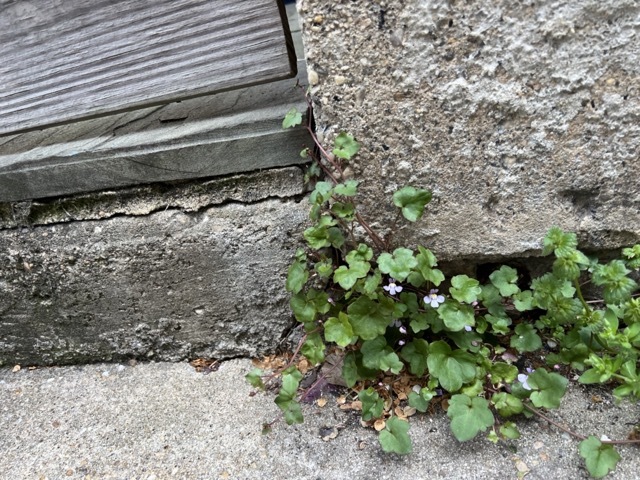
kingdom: Plantae
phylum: Tracheophyta
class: Magnoliopsida
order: Lamiales
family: Plantaginaceae
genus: Cymbalaria
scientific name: Cymbalaria muralis
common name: Ivy-leaved toadflax
